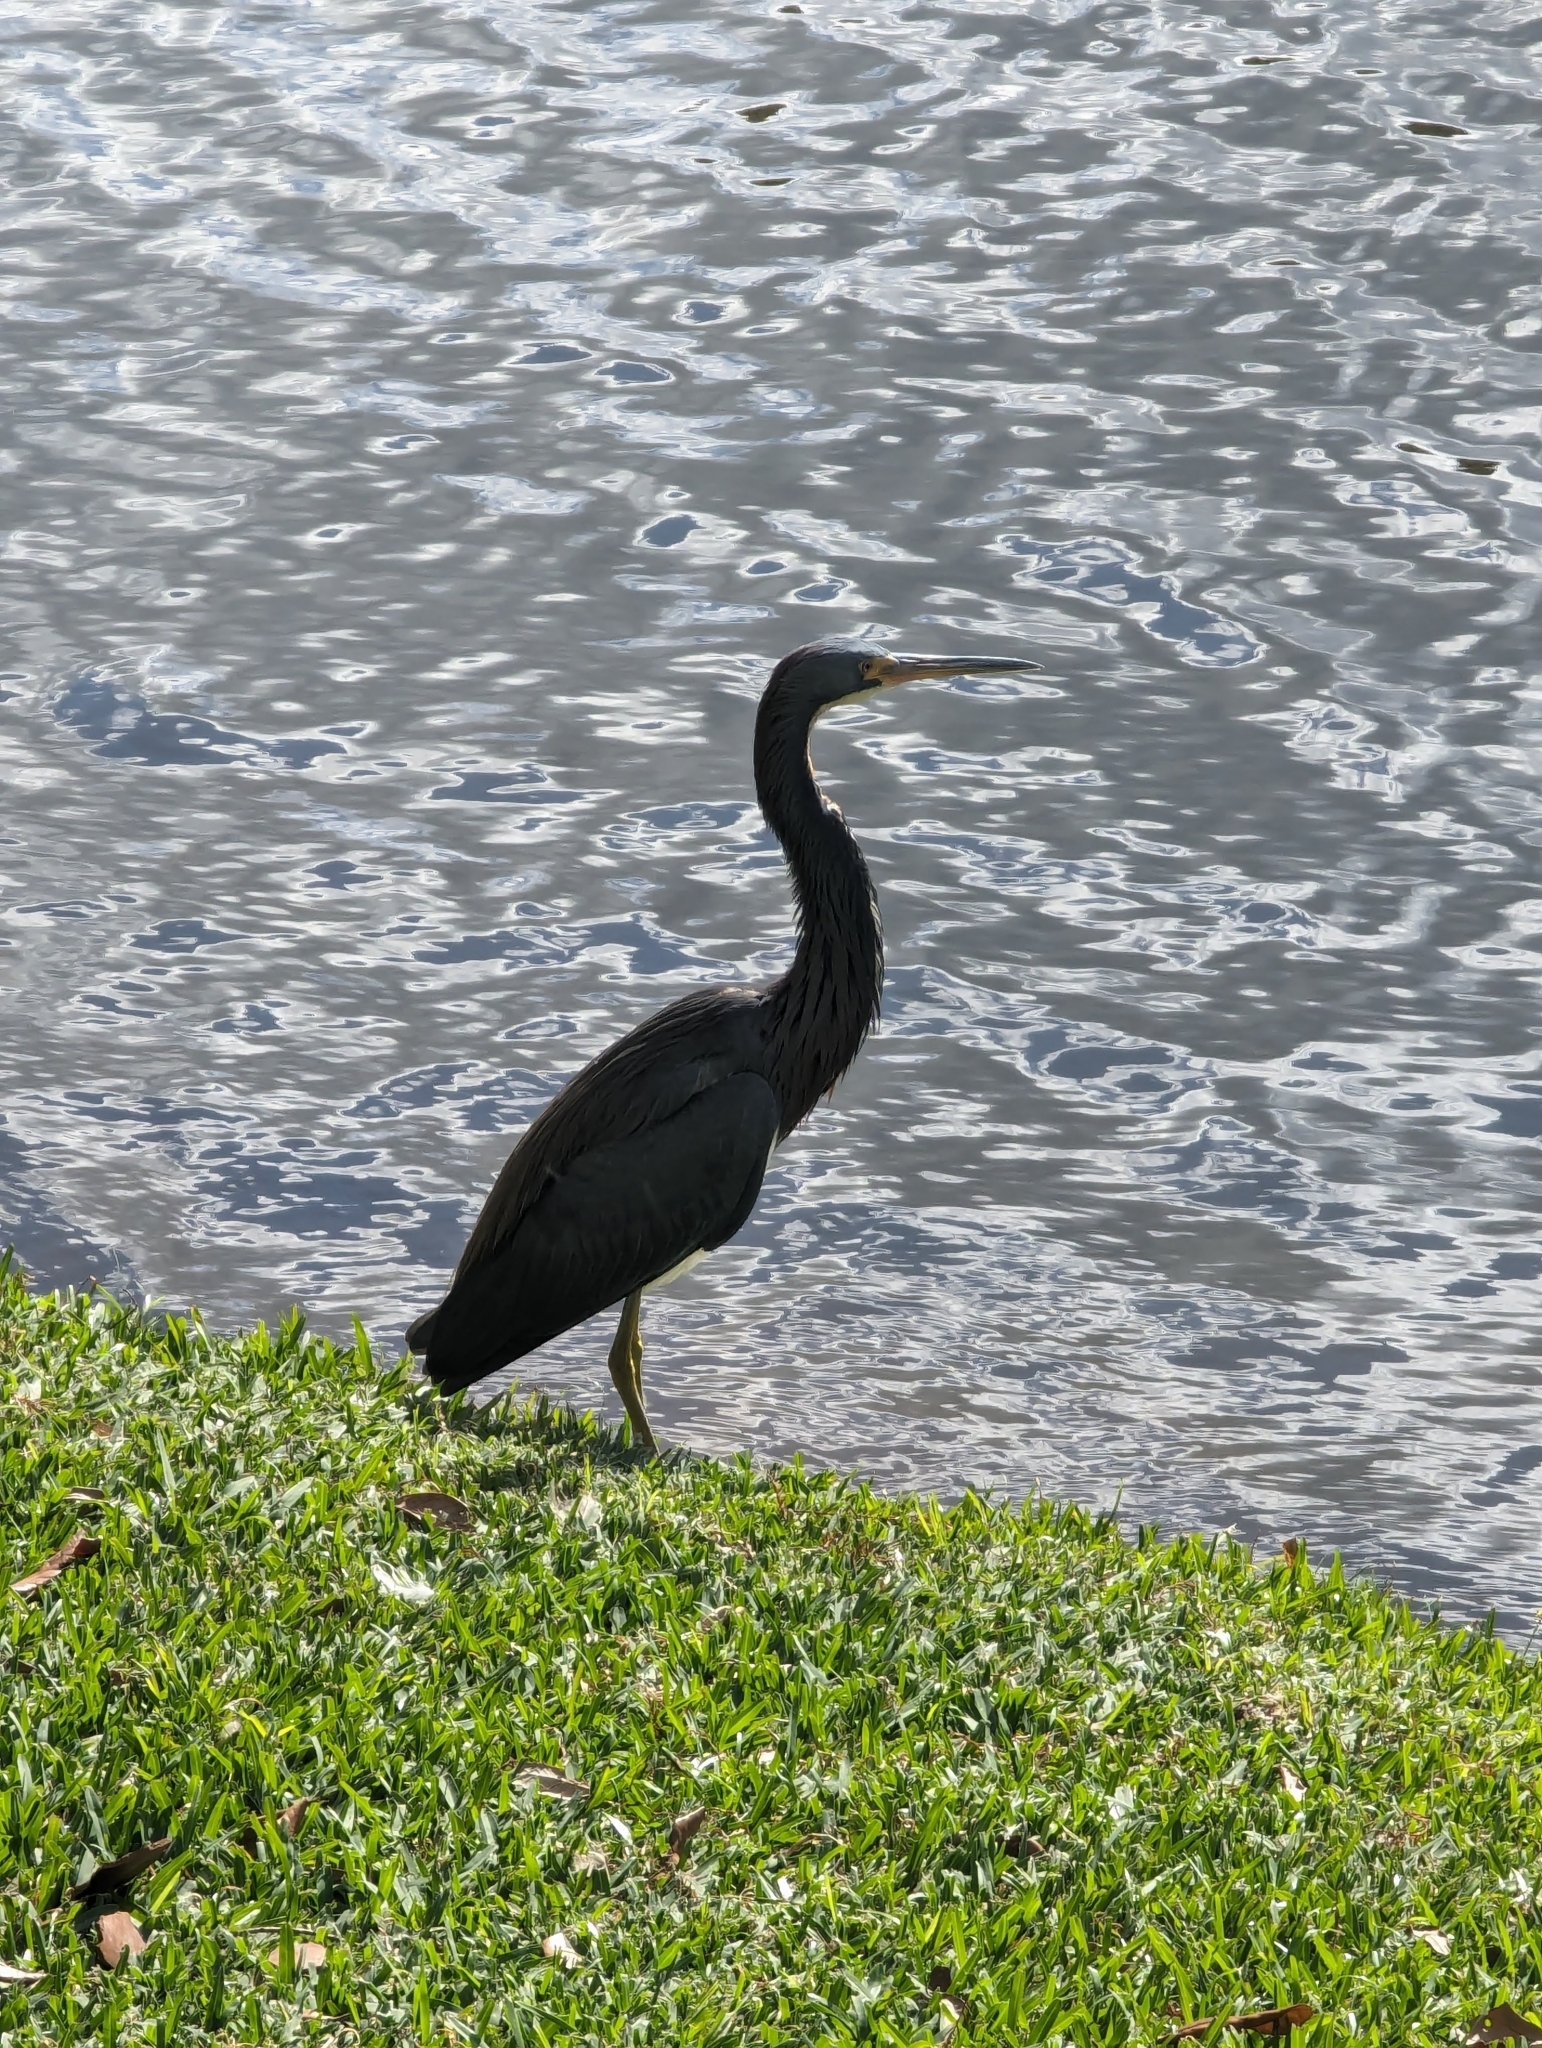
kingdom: Animalia
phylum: Chordata
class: Aves
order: Pelecaniformes
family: Ardeidae
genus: Egretta
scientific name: Egretta tricolor
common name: Tricolored heron
